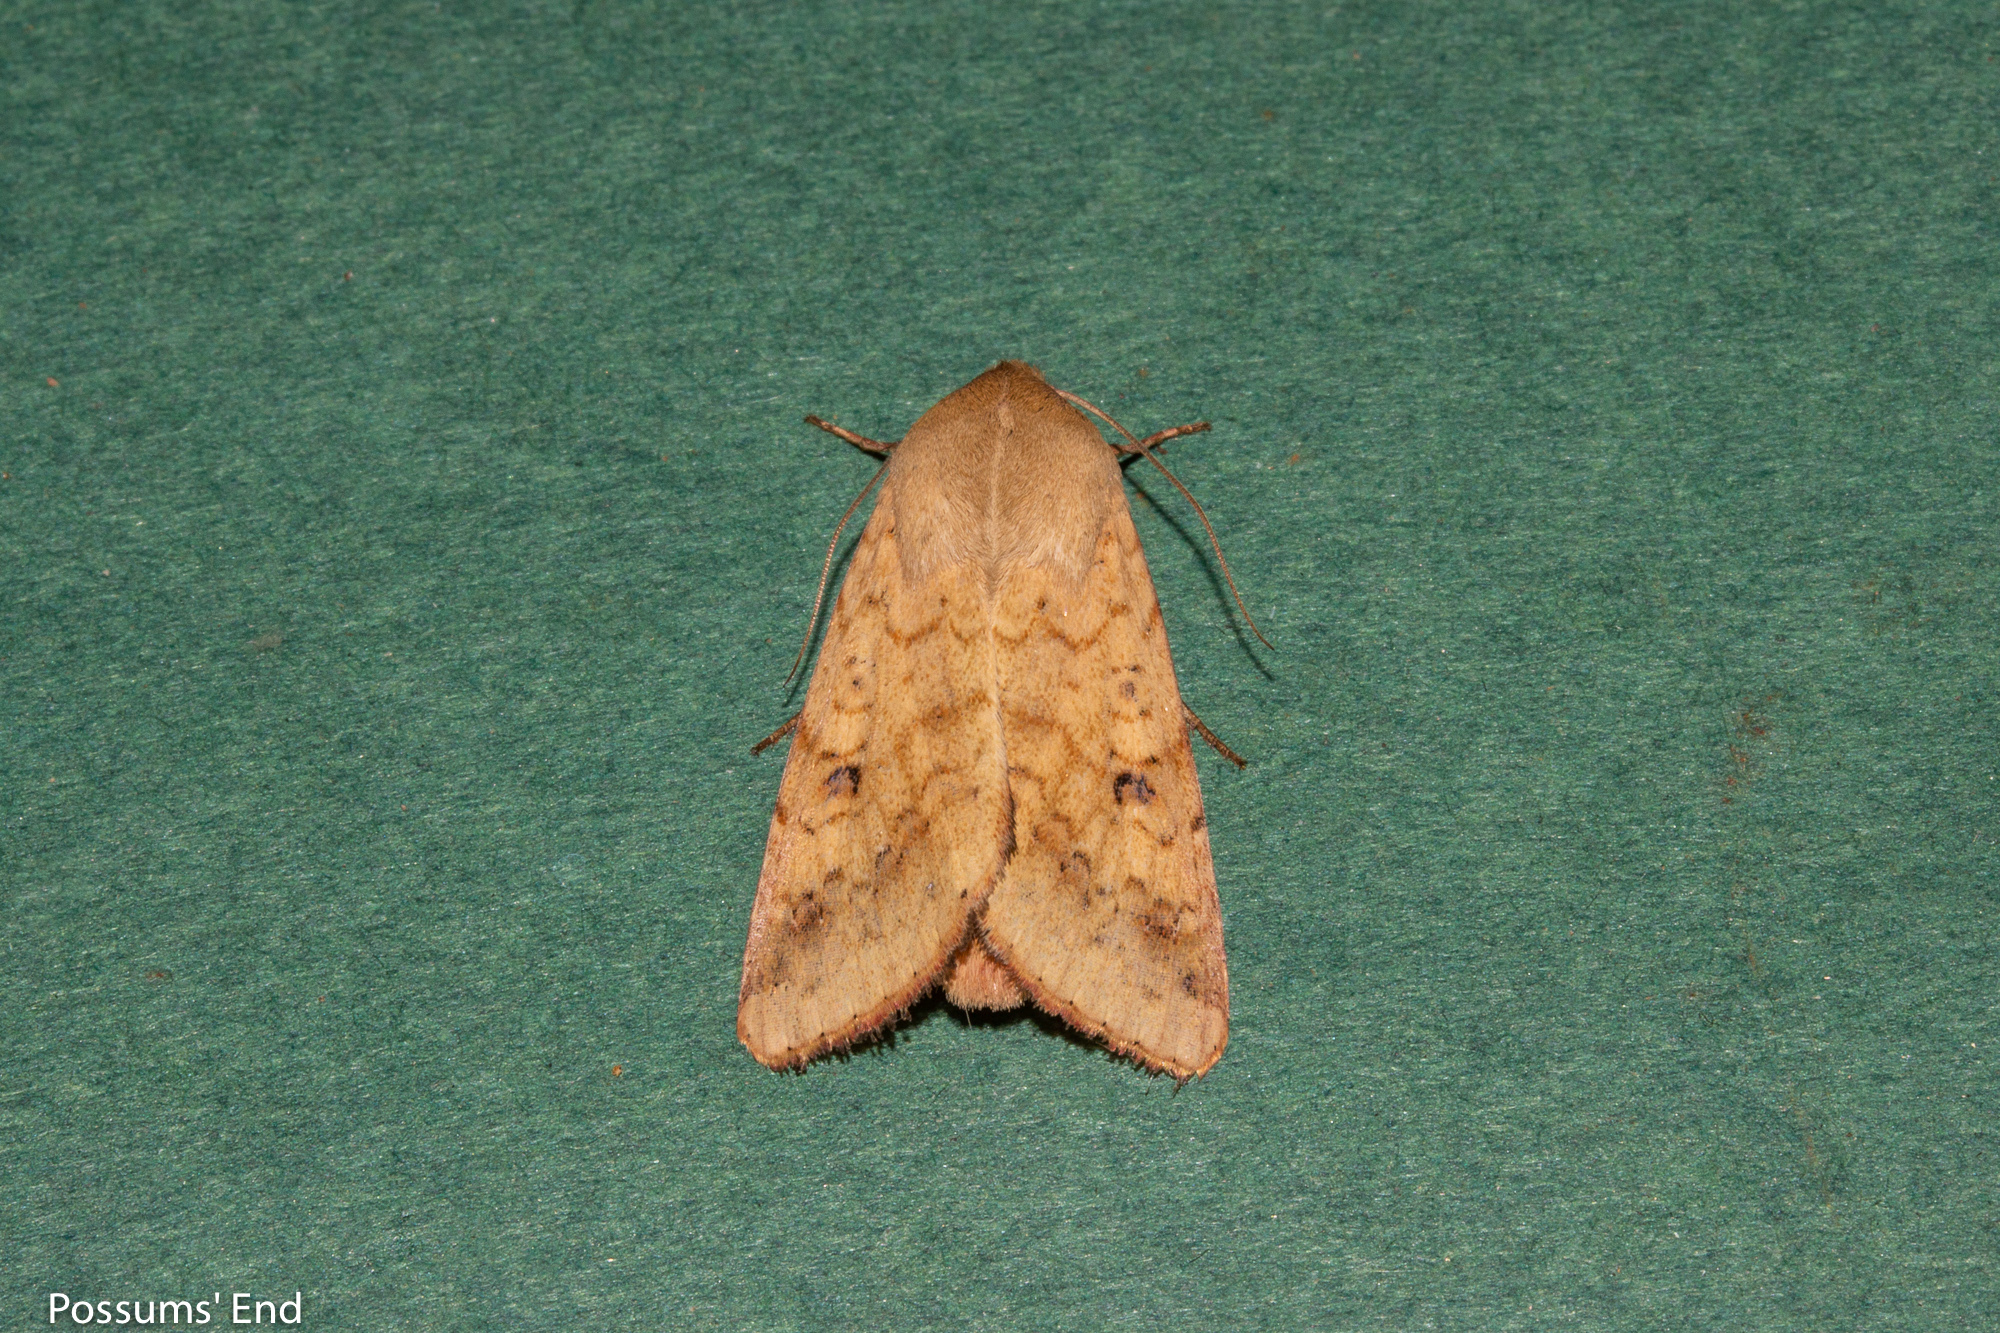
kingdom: Animalia
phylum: Arthropoda
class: Insecta
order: Lepidoptera
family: Noctuidae
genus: Helicoverpa
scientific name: Helicoverpa armigera
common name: Cotton bollworm
